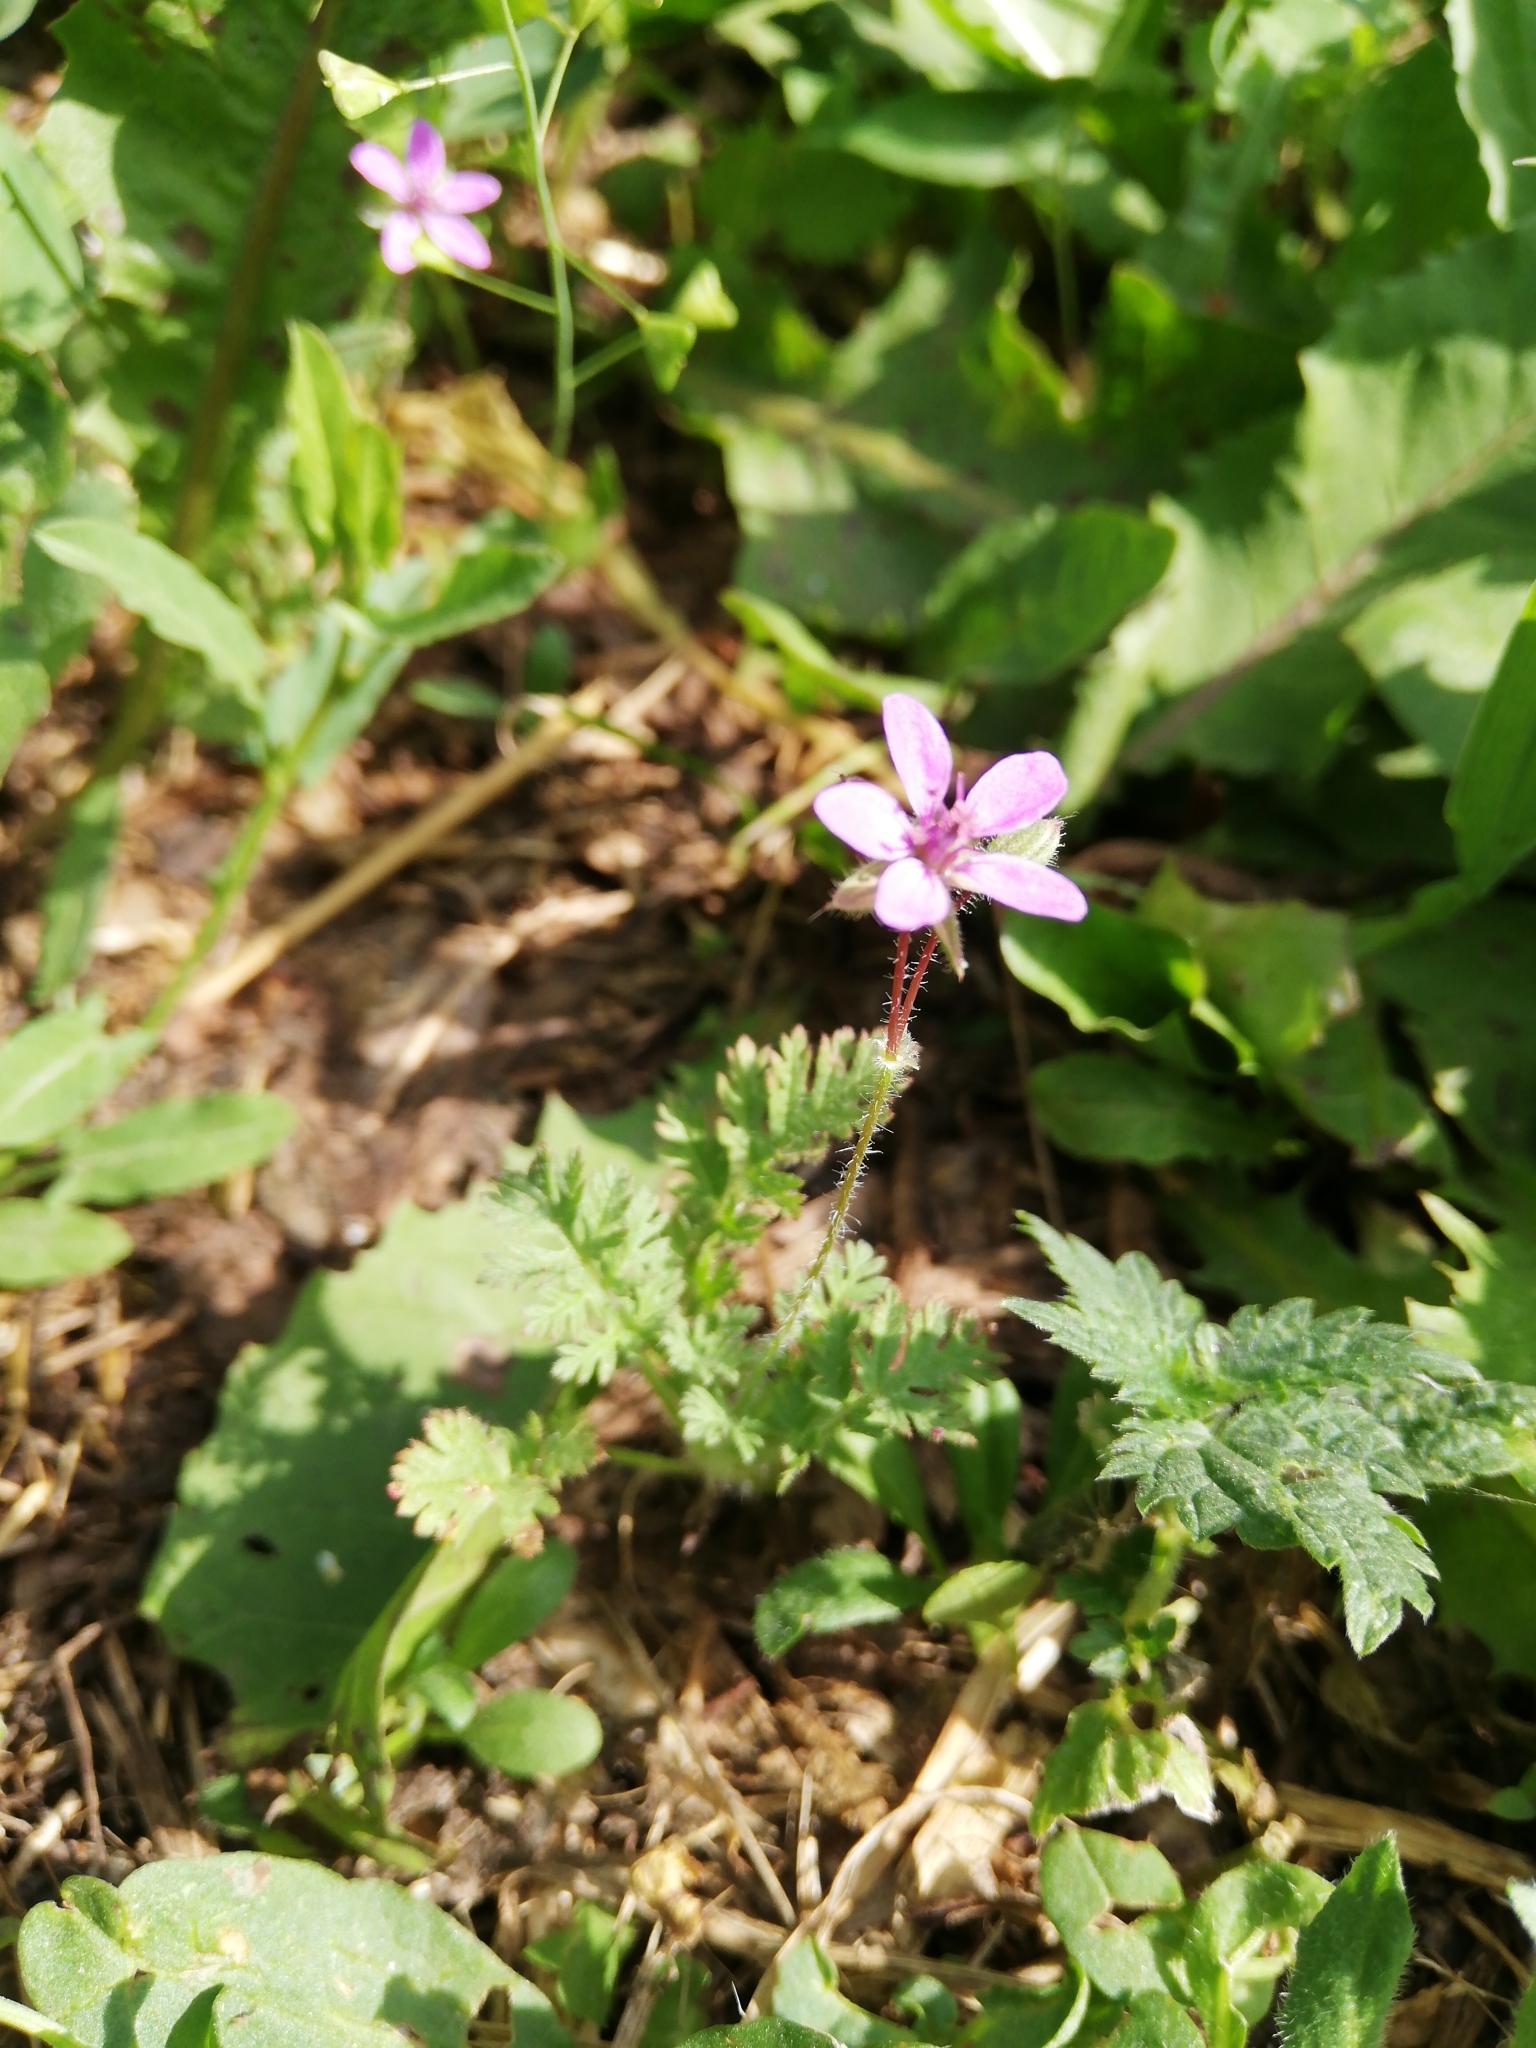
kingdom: Plantae
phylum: Tracheophyta
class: Magnoliopsida
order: Geraniales
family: Geraniaceae
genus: Erodium
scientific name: Erodium cicutarium
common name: Common stork's-bill
